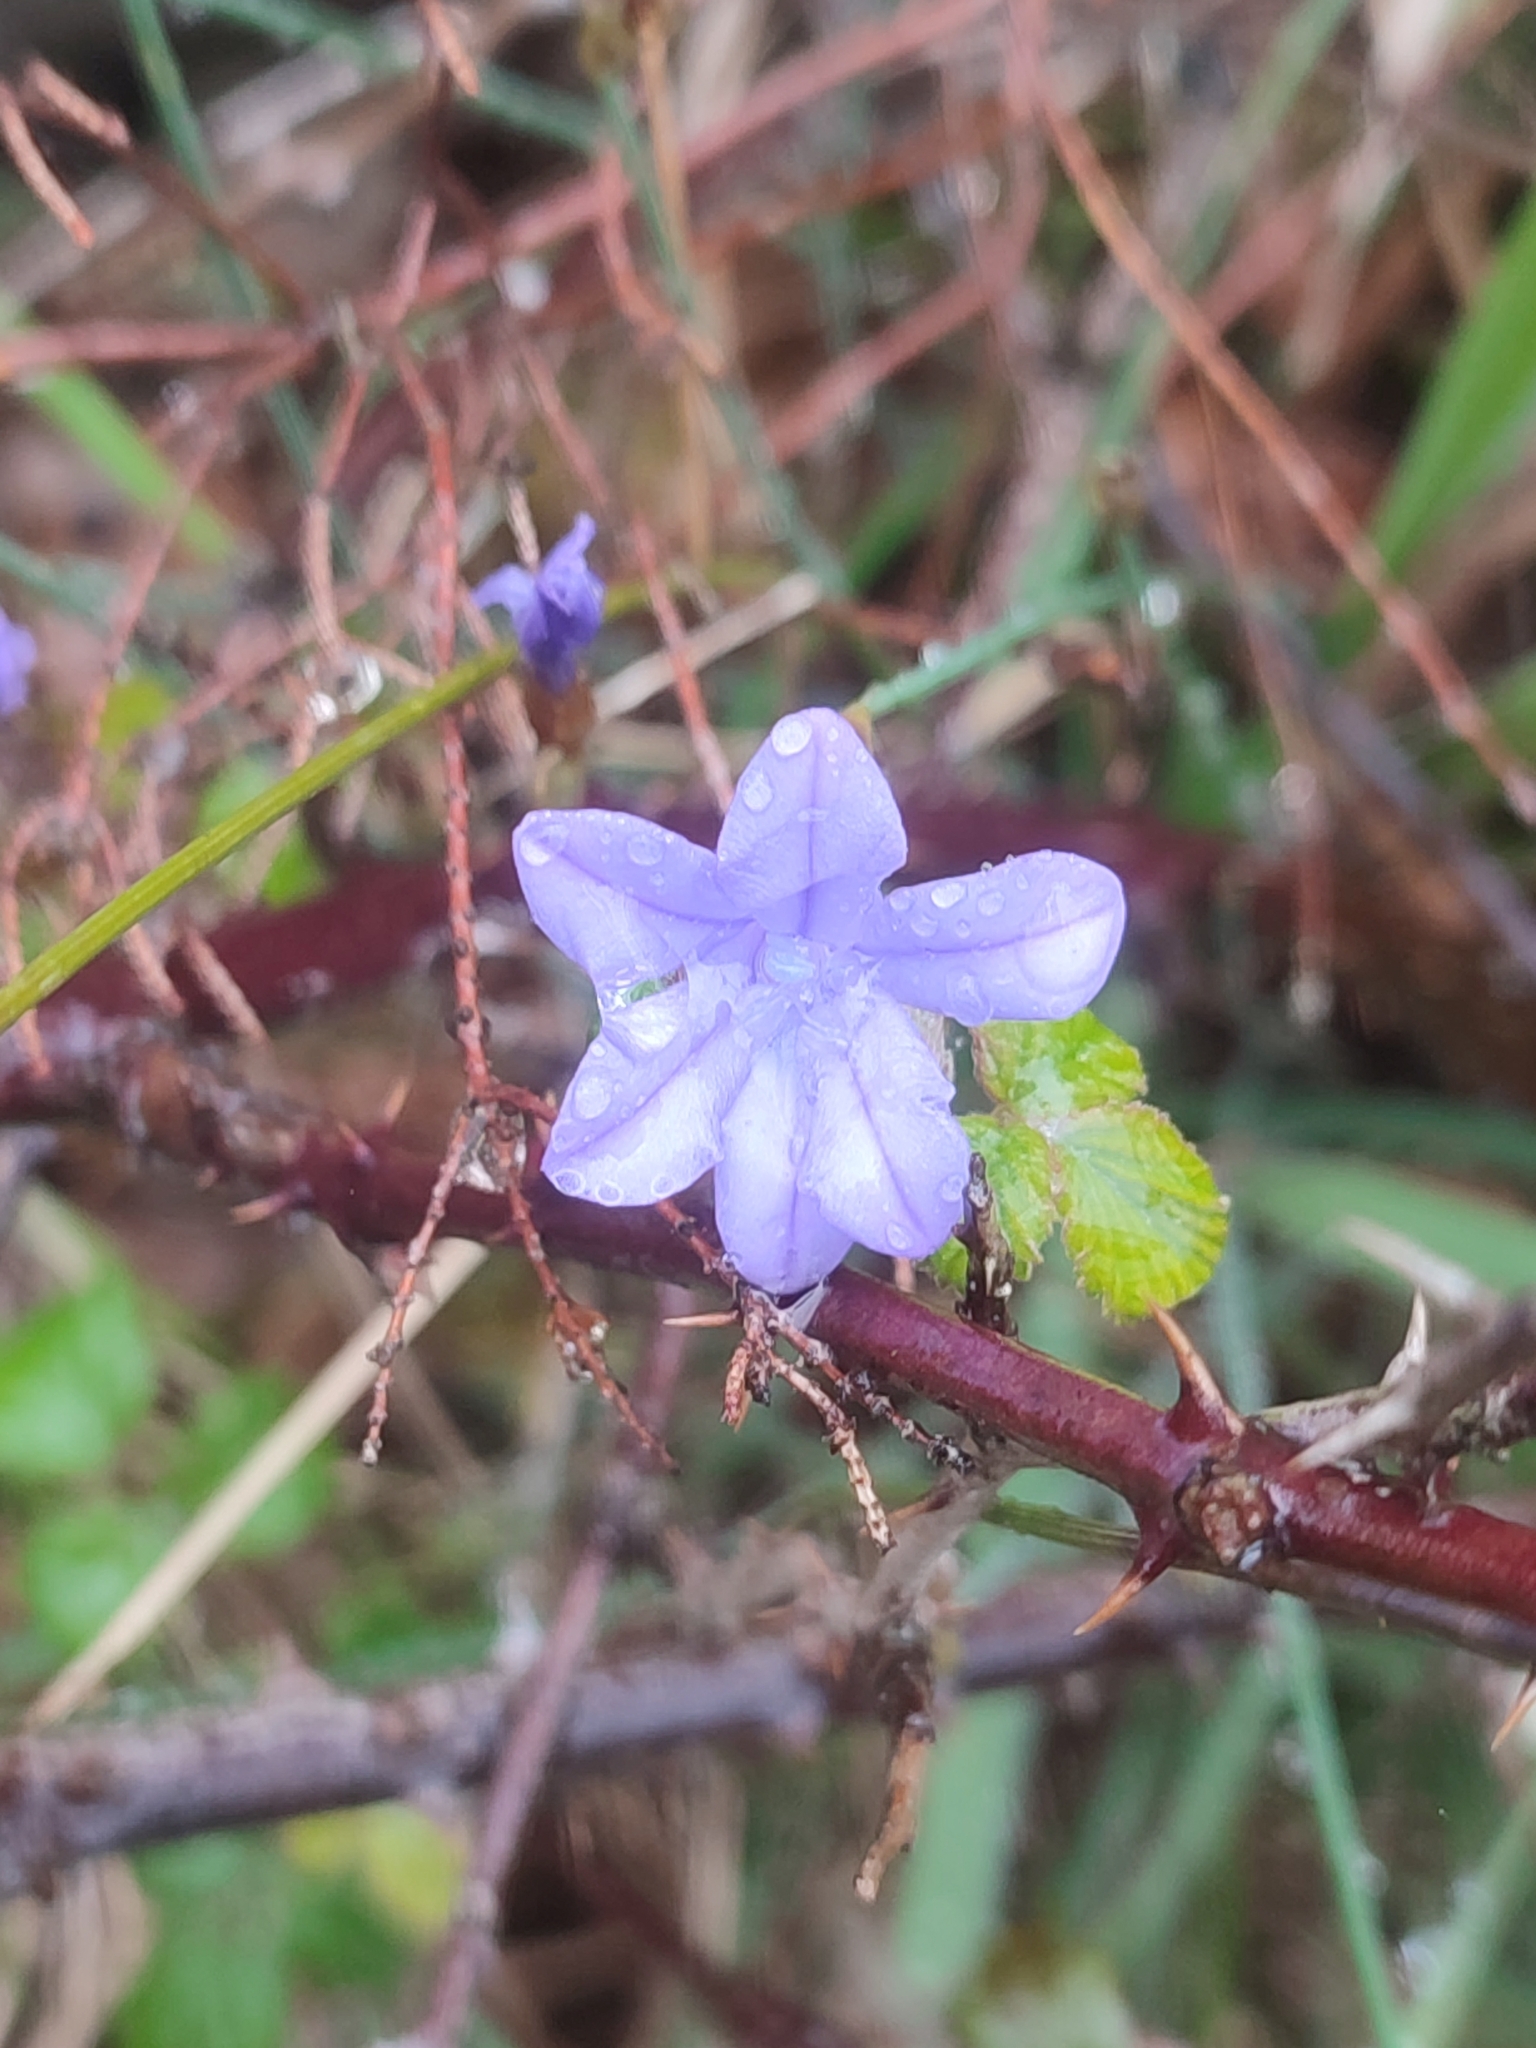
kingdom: Plantae
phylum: Tracheophyta
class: Liliopsida
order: Asparagales
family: Asparagaceae
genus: Aphyllanthes
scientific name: Aphyllanthes monspeliensis
